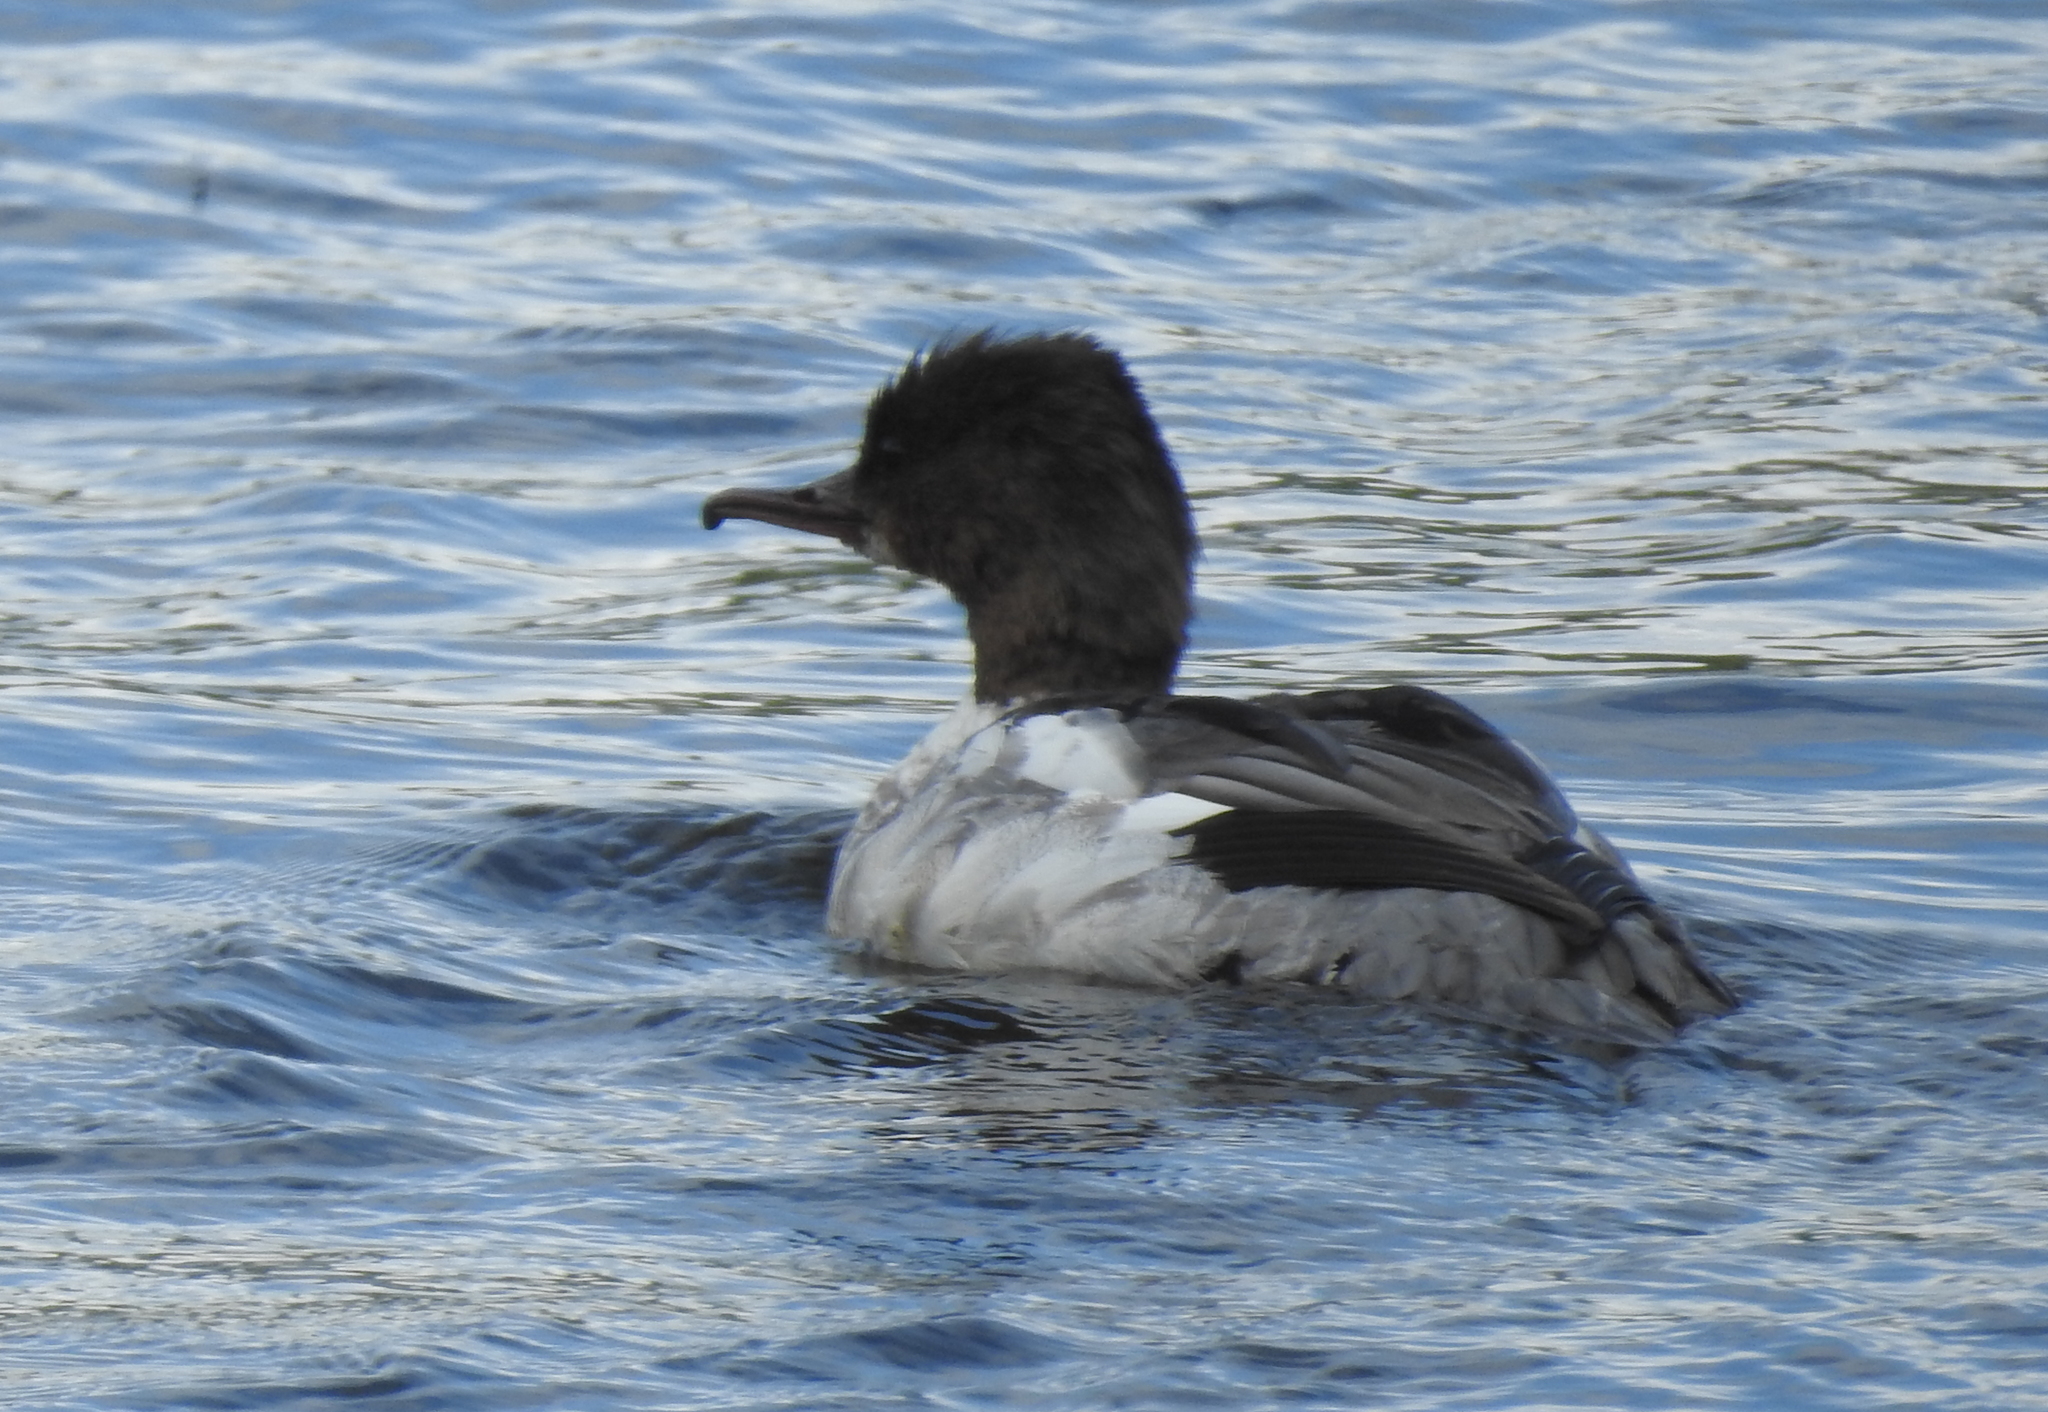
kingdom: Animalia
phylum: Chordata
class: Aves
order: Anseriformes
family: Anatidae
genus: Mergus
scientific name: Mergus merganser
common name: Common merganser
